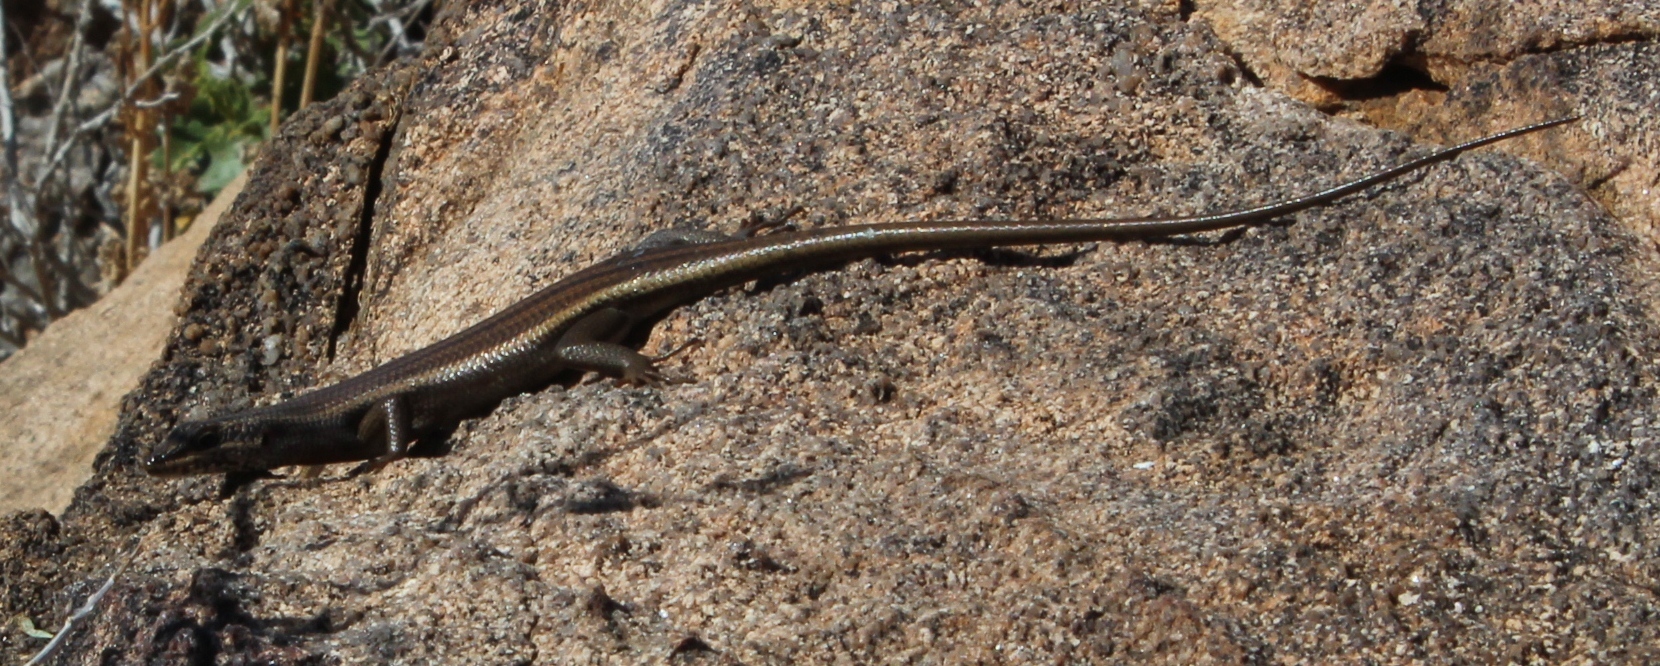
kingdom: Animalia
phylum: Chordata
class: Squamata
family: Scincidae
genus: Trachylepis
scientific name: Trachylepis sulcata
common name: Western rock skink
